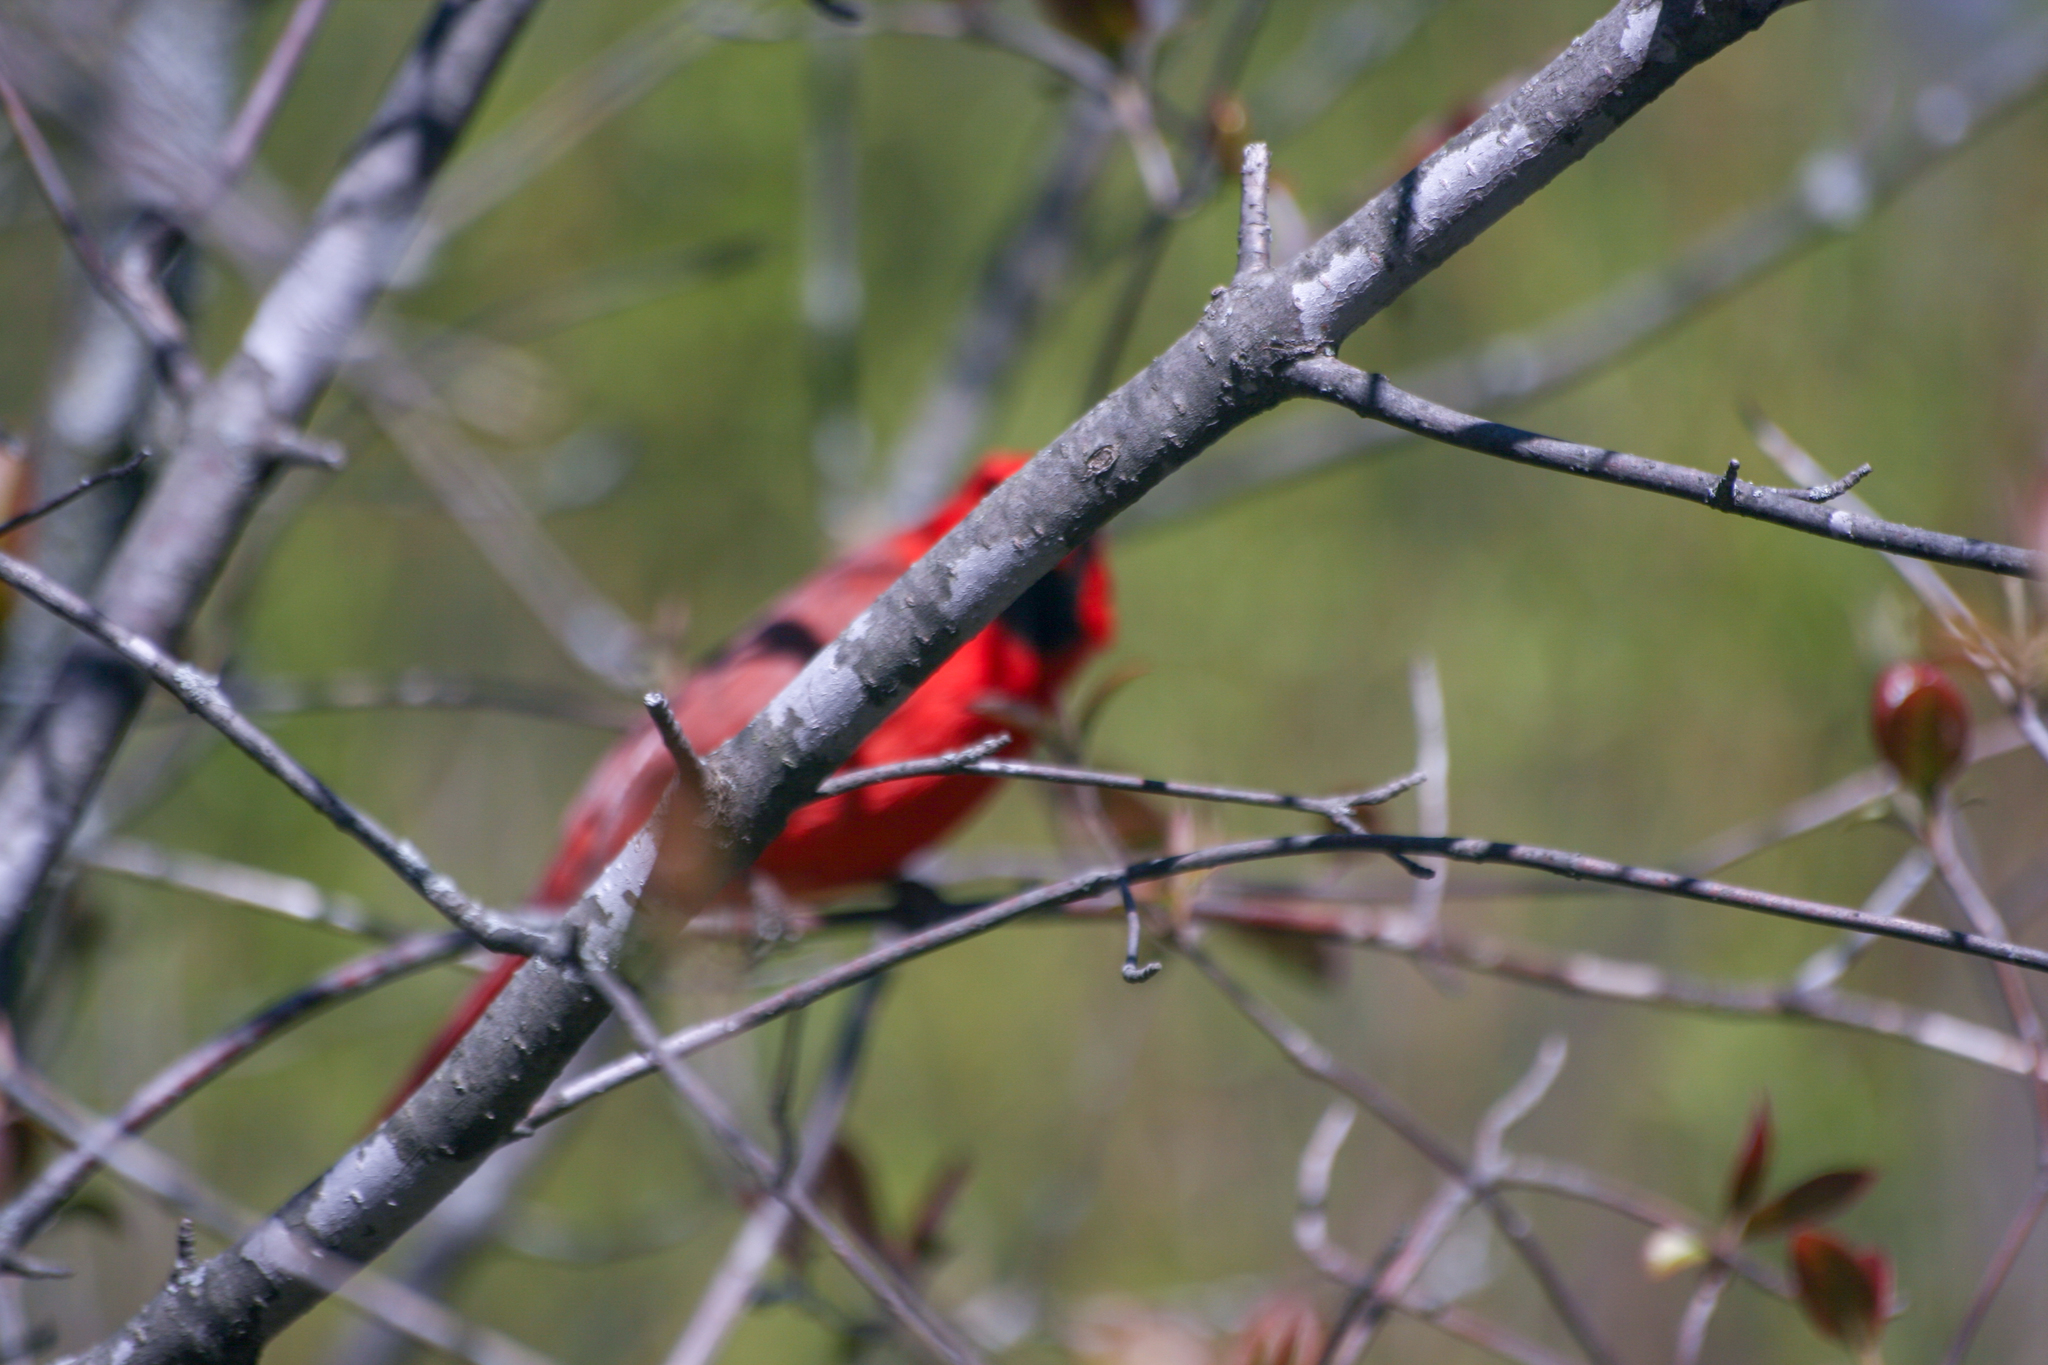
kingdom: Animalia
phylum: Chordata
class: Aves
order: Passeriformes
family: Cardinalidae
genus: Cardinalis
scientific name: Cardinalis cardinalis
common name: Northern cardinal
